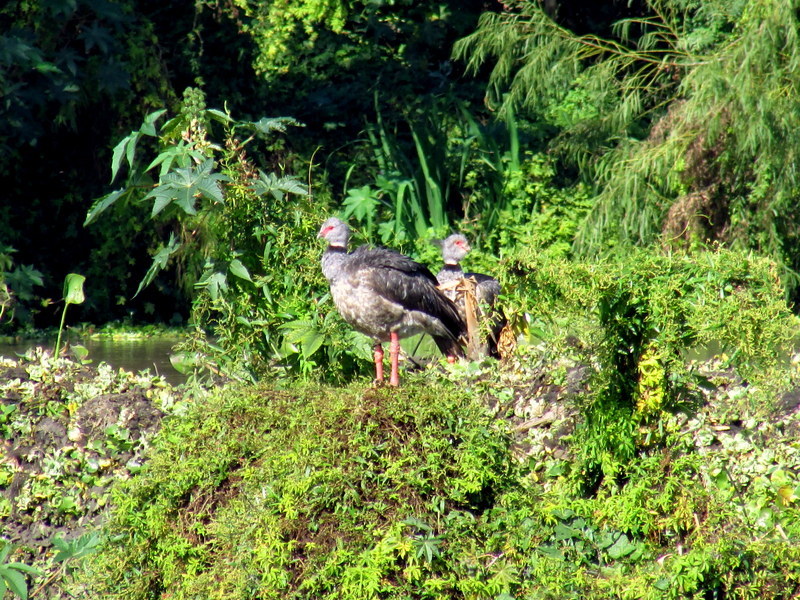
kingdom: Animalia
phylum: Chordata
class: Aves
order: Anseriformes
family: Anhimidae
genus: Chauna
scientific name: Chauna torquata
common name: Southern screamer
